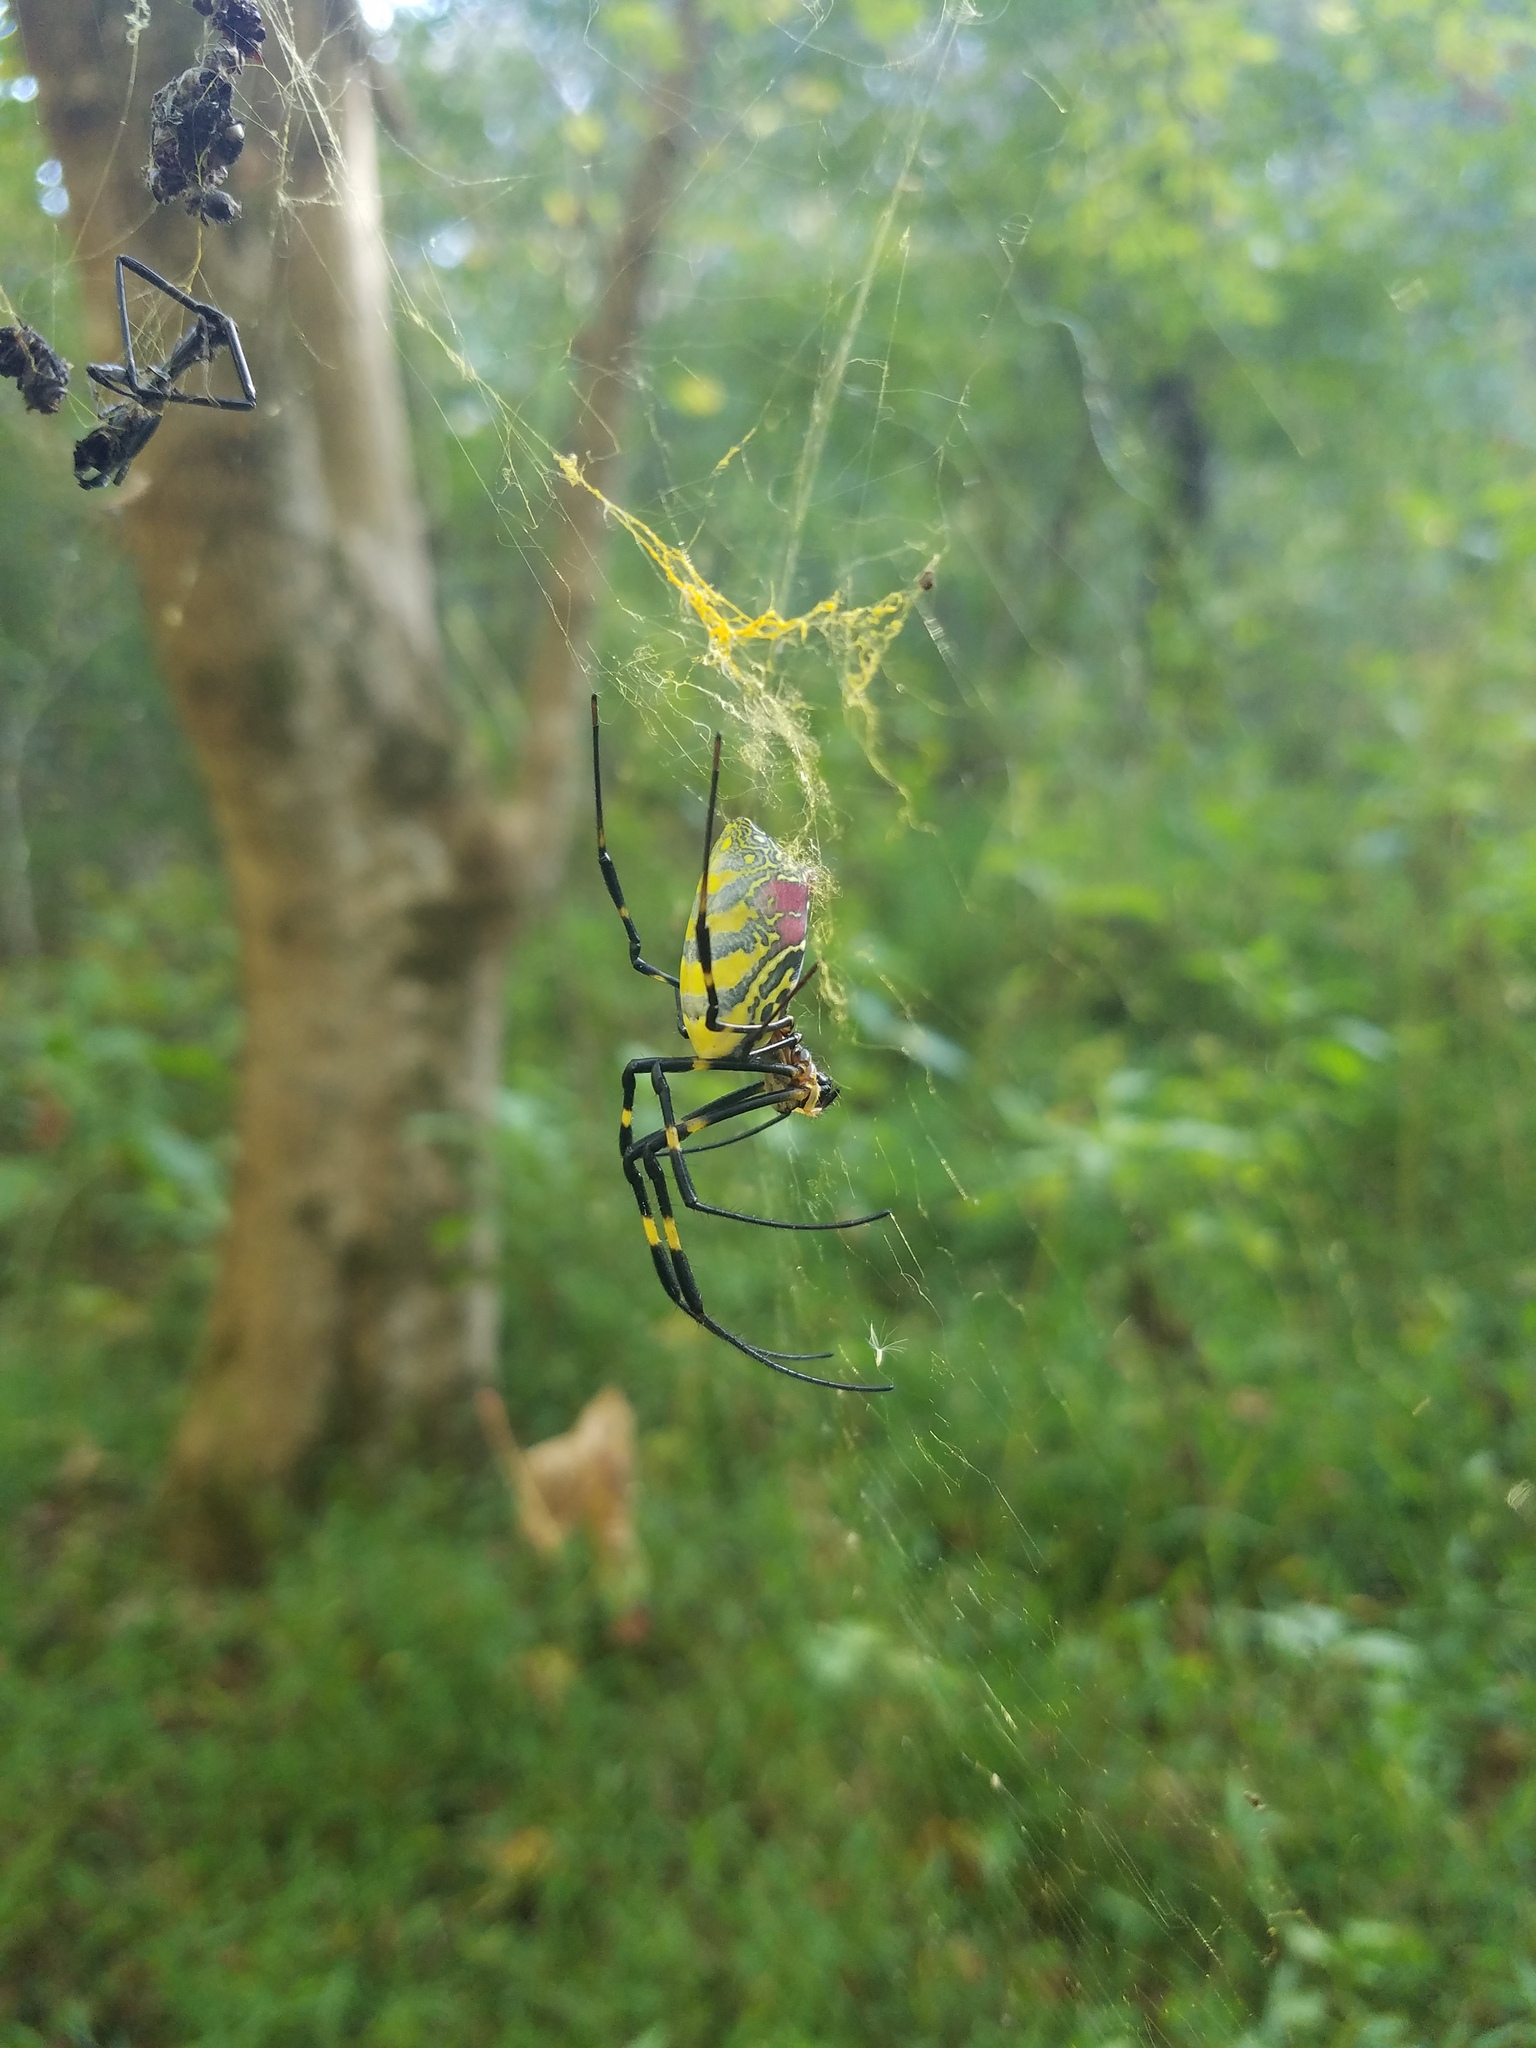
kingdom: Animalia
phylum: Arthropoda
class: Arachnida
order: Araneae
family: Araneidae
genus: Trichonephila
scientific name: Trichonephila clavata
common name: Jorō spider
